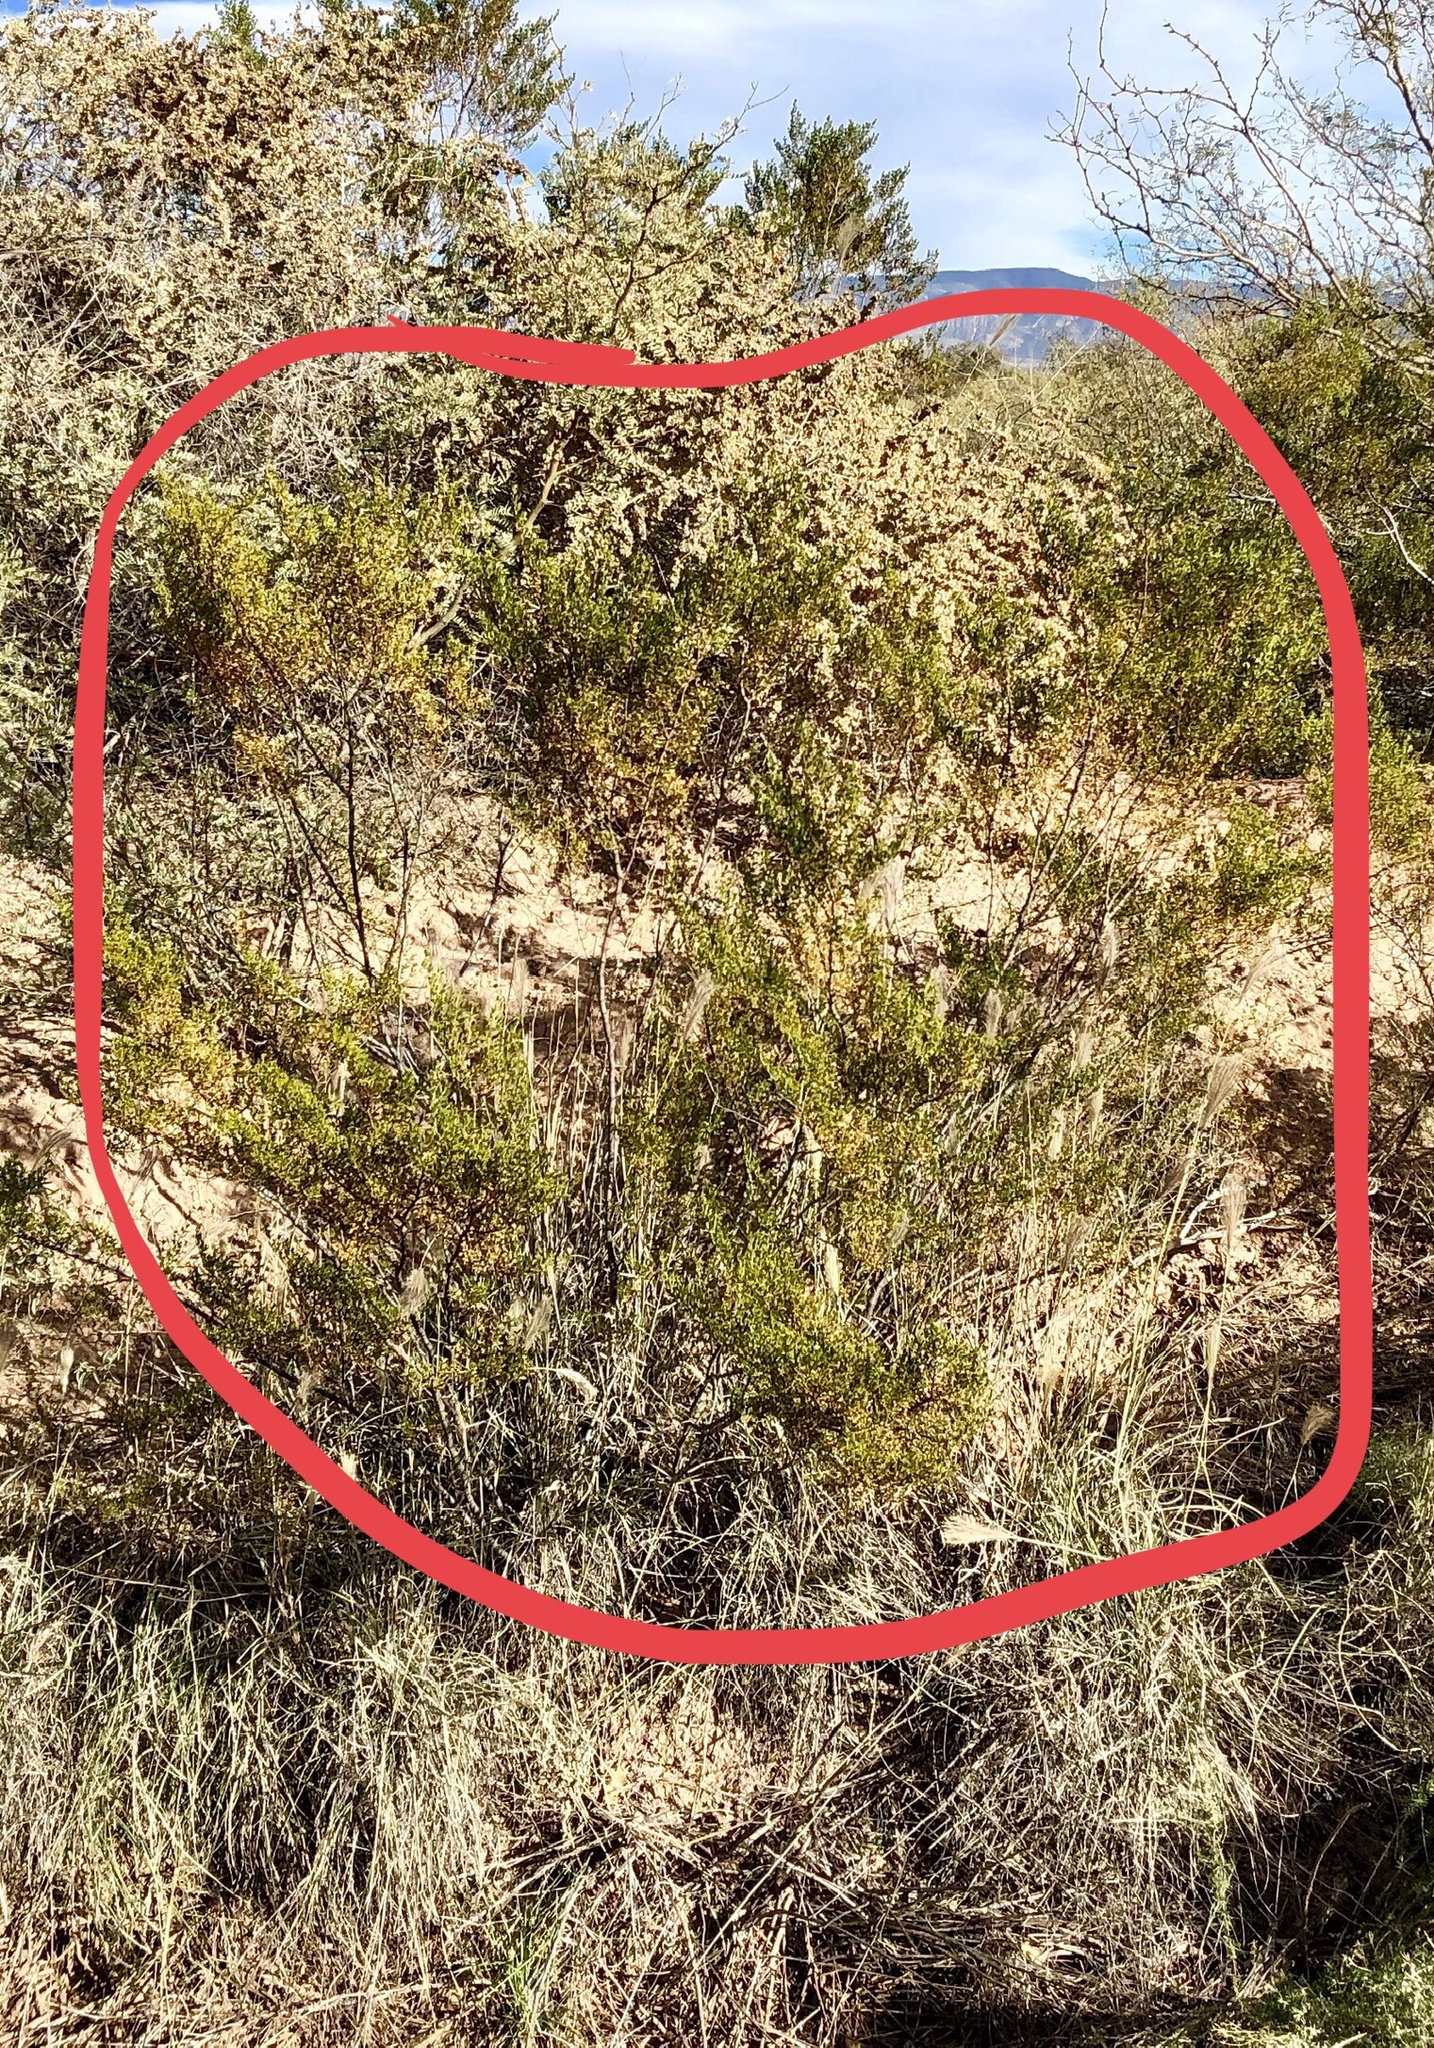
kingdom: Plantae
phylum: Tracheophyta
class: Magnoliopsida
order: Zygophyllales
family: Zygophyllaceae
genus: Larrea
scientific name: Larrea tridentata
